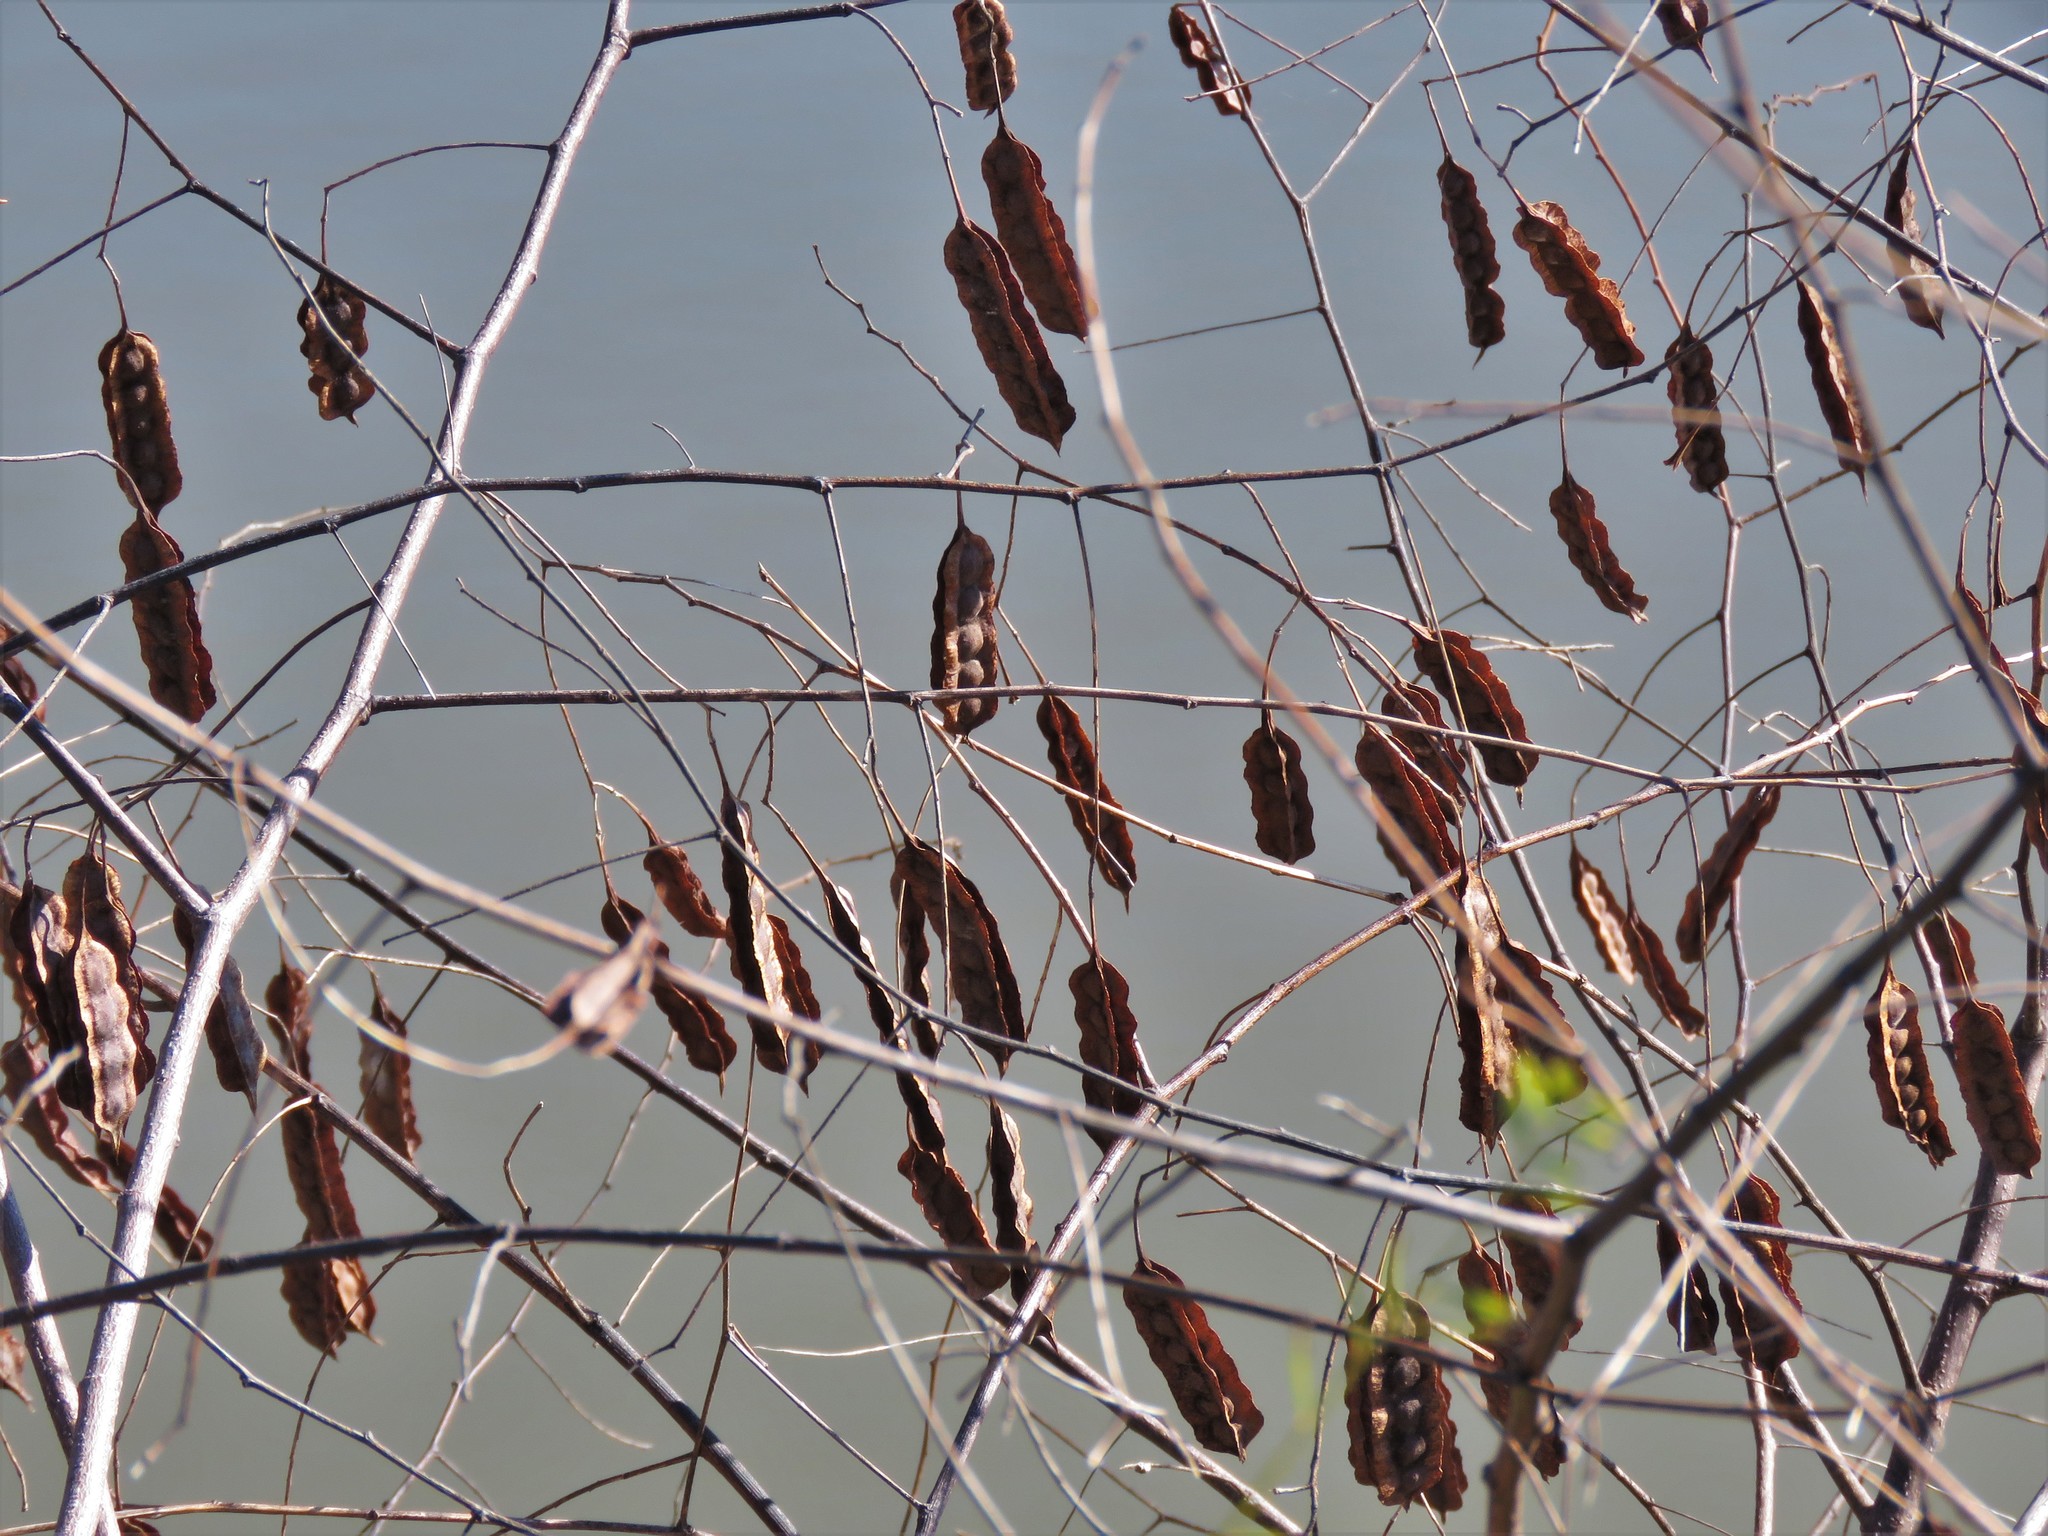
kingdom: Plantae
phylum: Tracheophyta
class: Magnoliopsida
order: Fabales
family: Fabaceae
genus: Sesbania
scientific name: Sesbania drummondii
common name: Poison-bean
